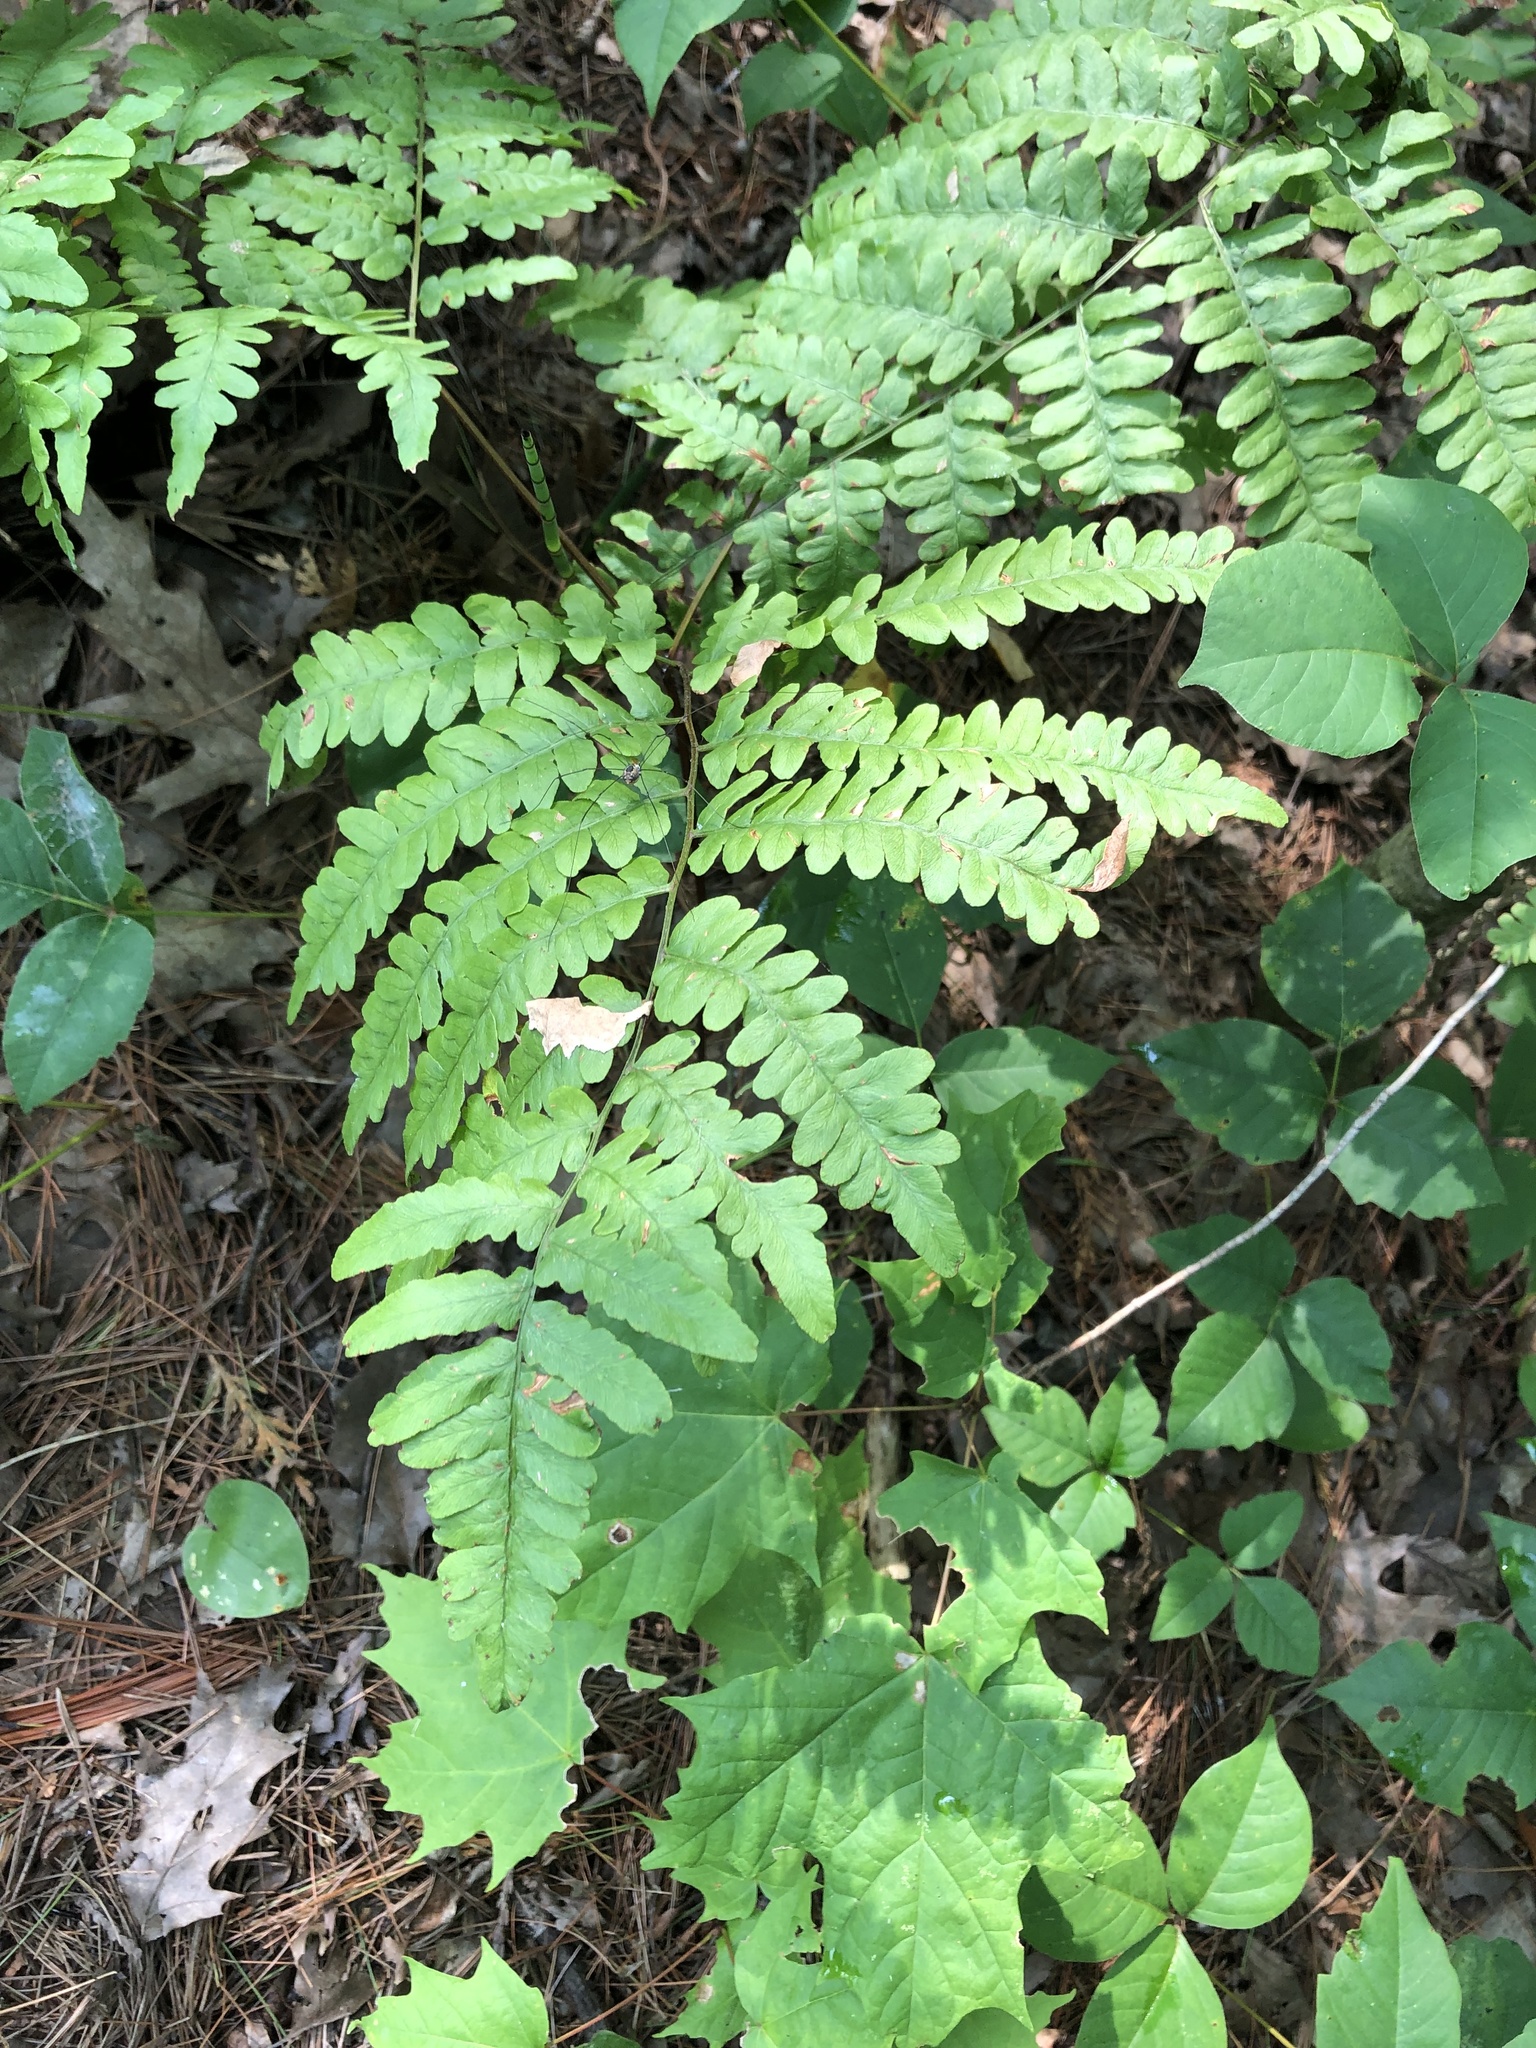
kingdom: Plantae
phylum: Tracheophyta
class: Polypodiopsida
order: Polypodiales
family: Dennstaedtiaceae
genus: Pteridium
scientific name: Pteridium aquilinum
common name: Bracken
